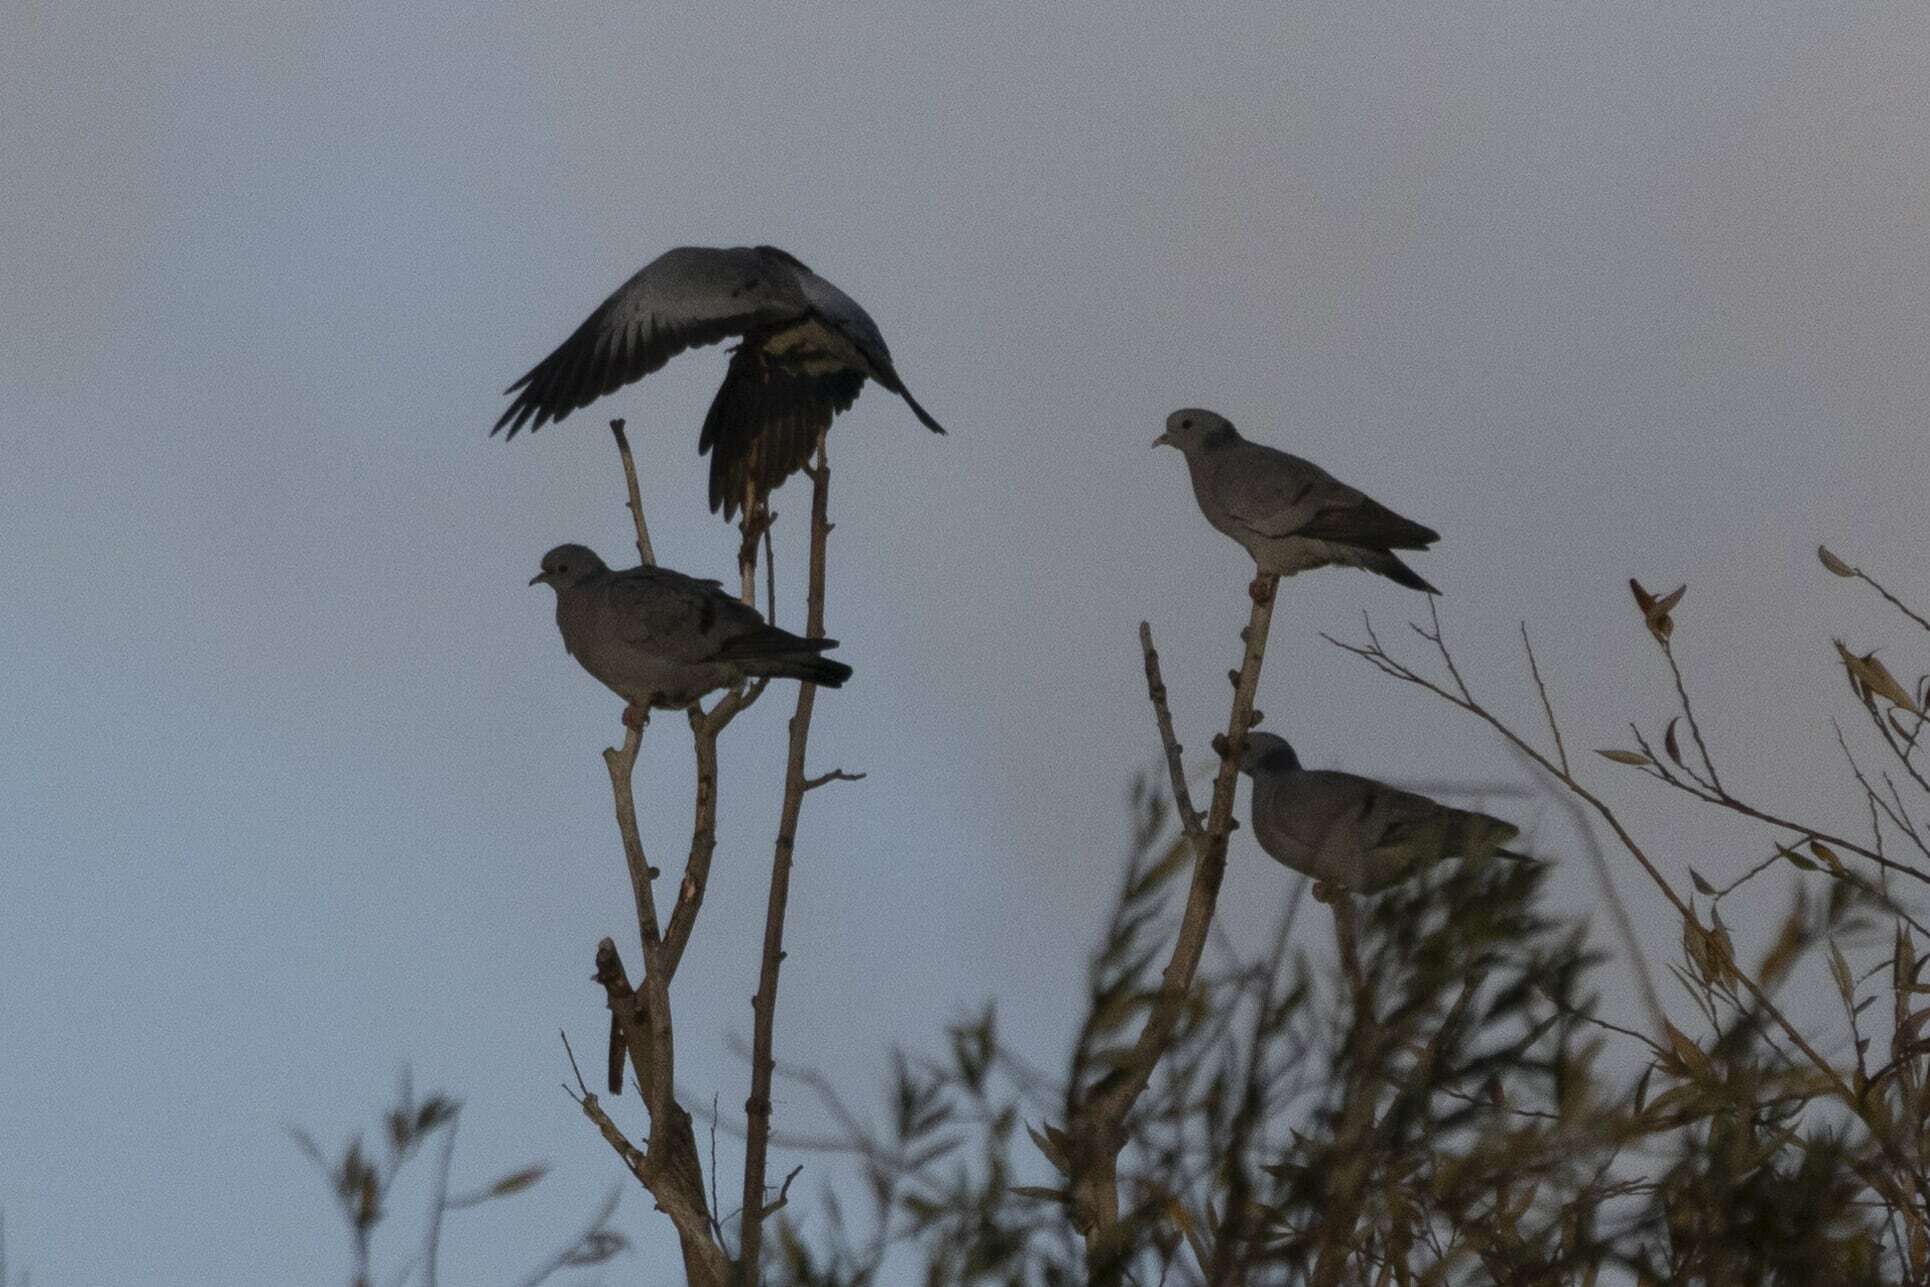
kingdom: Animalia
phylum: Chordata
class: Aves
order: Columbiformes
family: Columbidae
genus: Columba
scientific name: Columba oenas
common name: Stock dove
